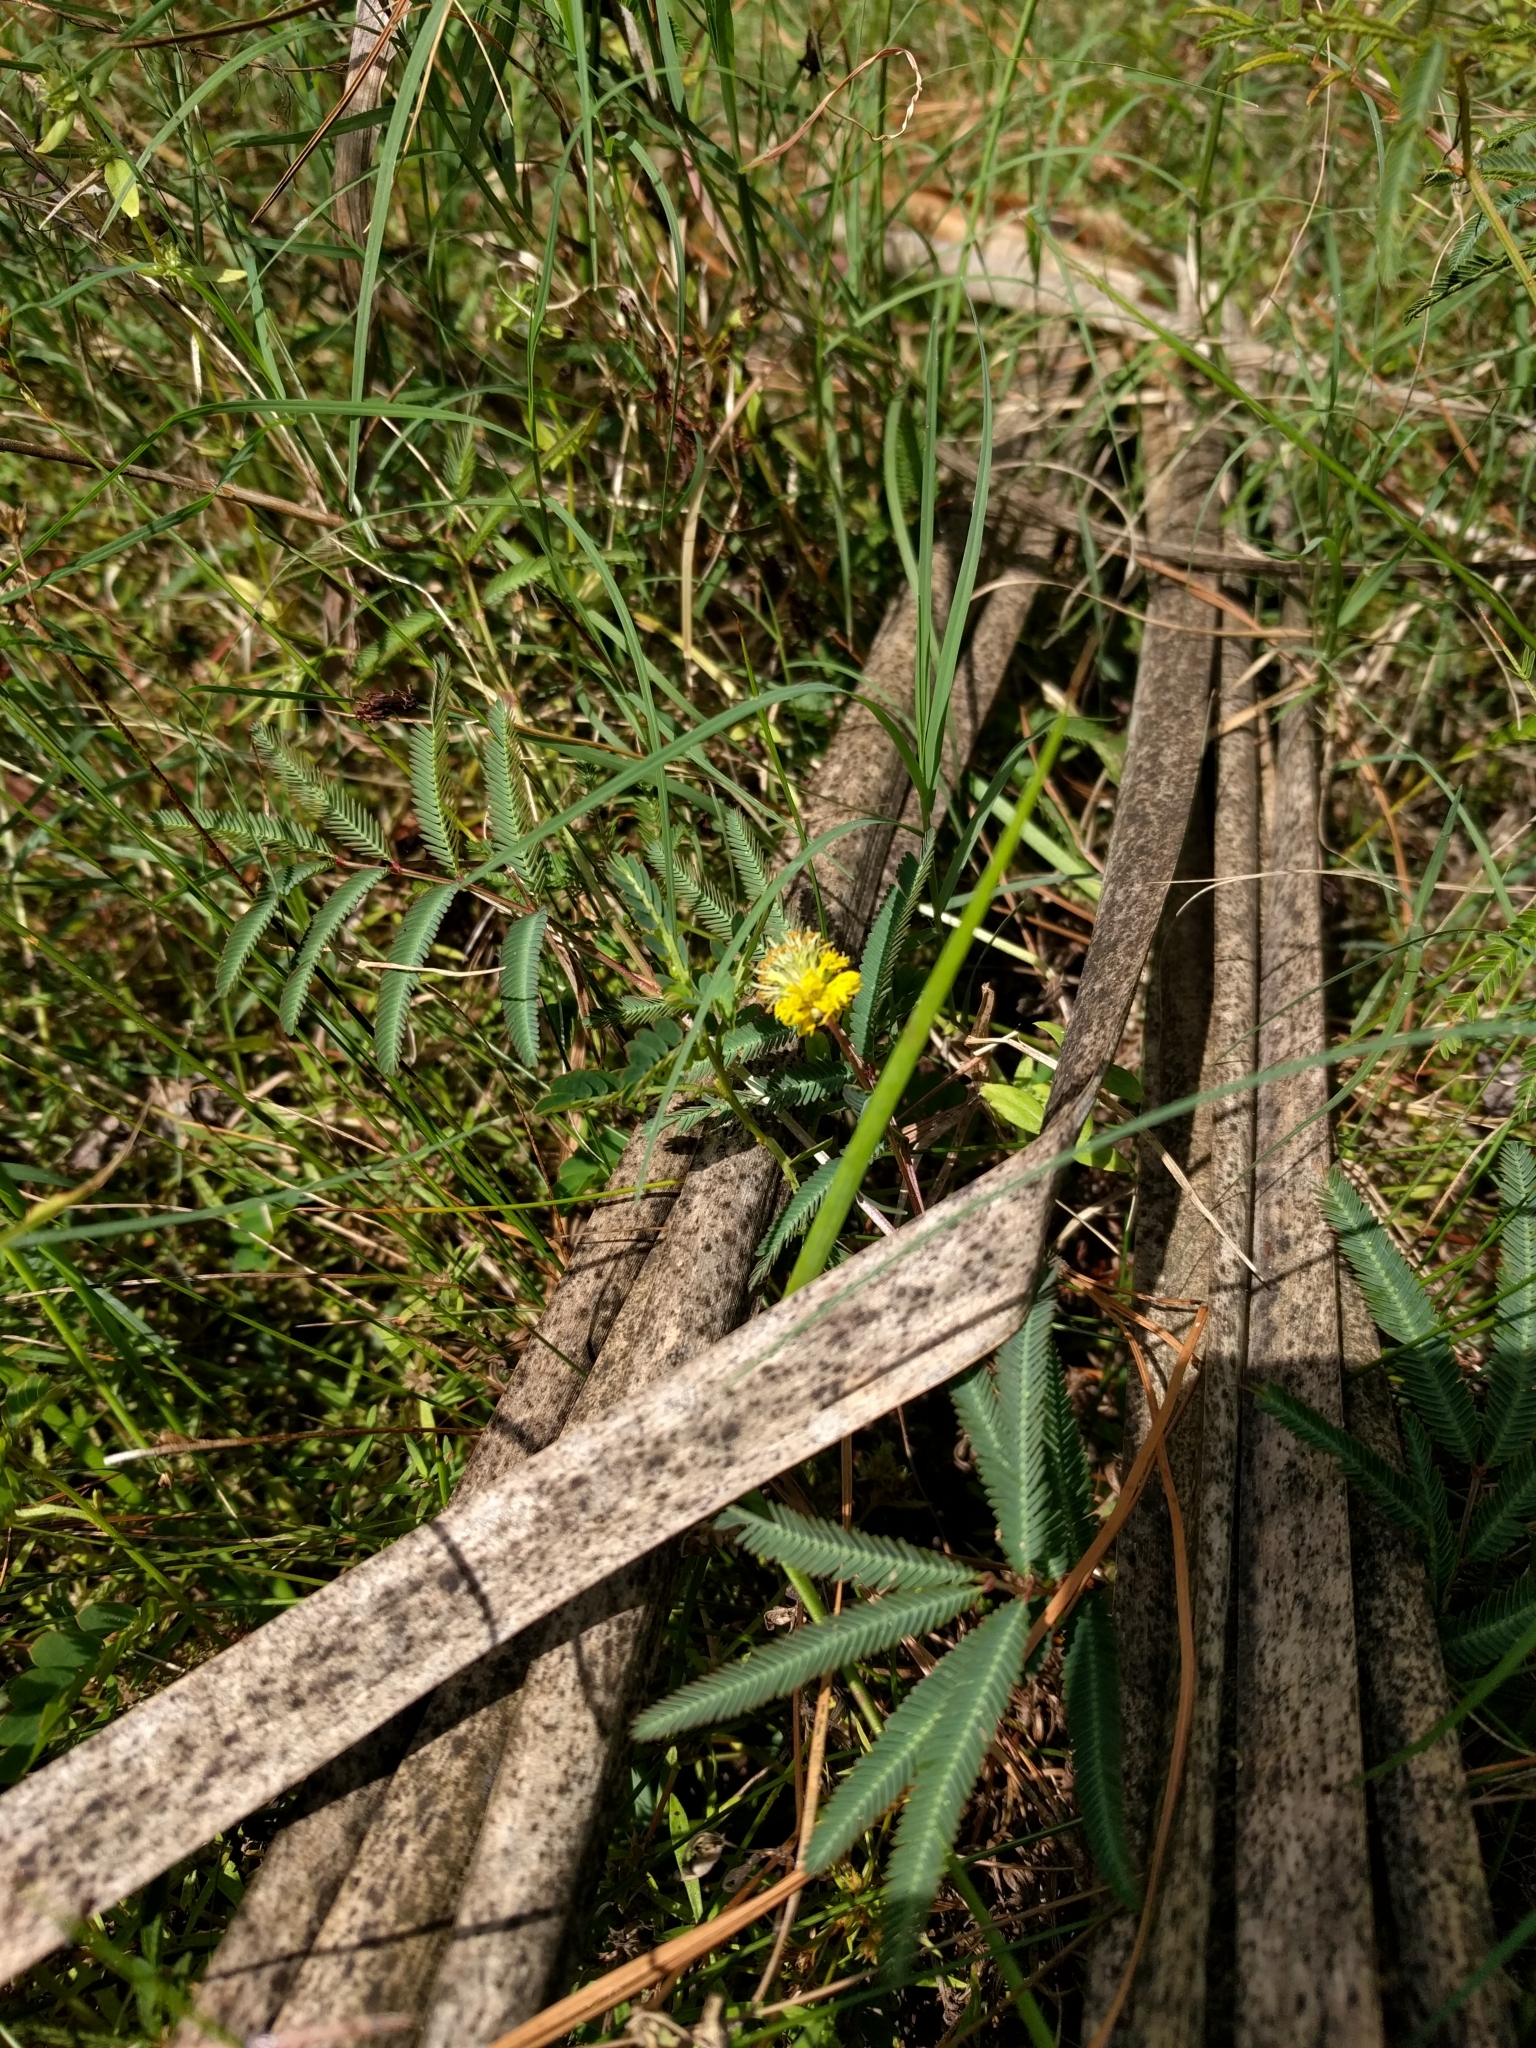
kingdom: Plantae
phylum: Tracheophyta
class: Magnoliopsida
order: Fabales
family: Fabaceae
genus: Neptunia
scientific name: Neptunia pubescens
